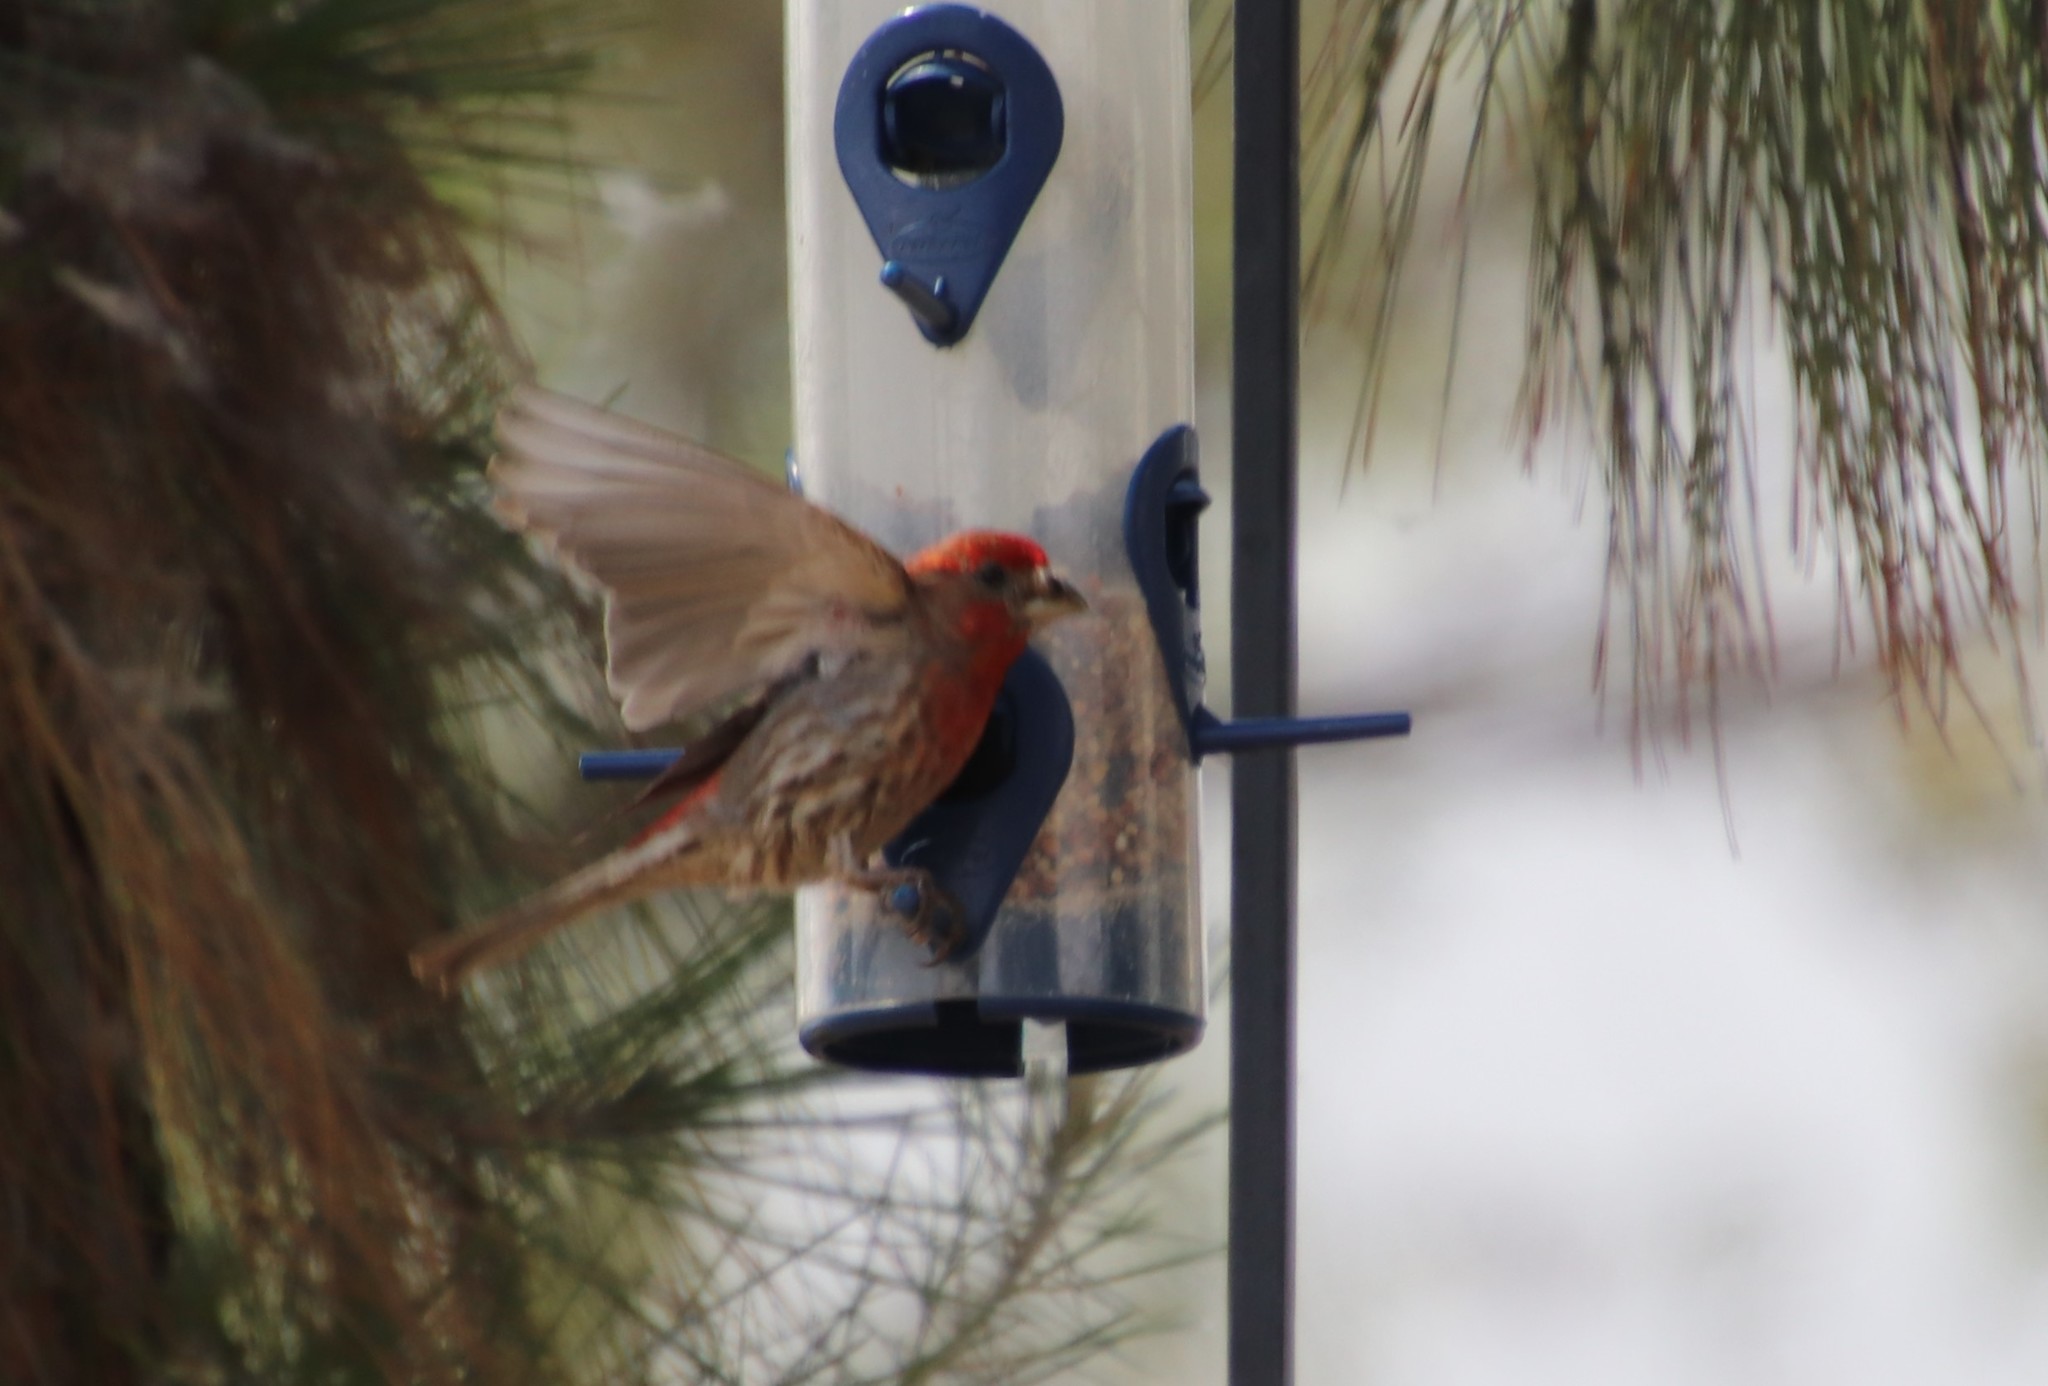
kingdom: Animalia
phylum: Chordata
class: Aves
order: Passeriformes
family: Fringillidae
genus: Haemorhous
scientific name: Haemorhous mexicanus
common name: House finch
